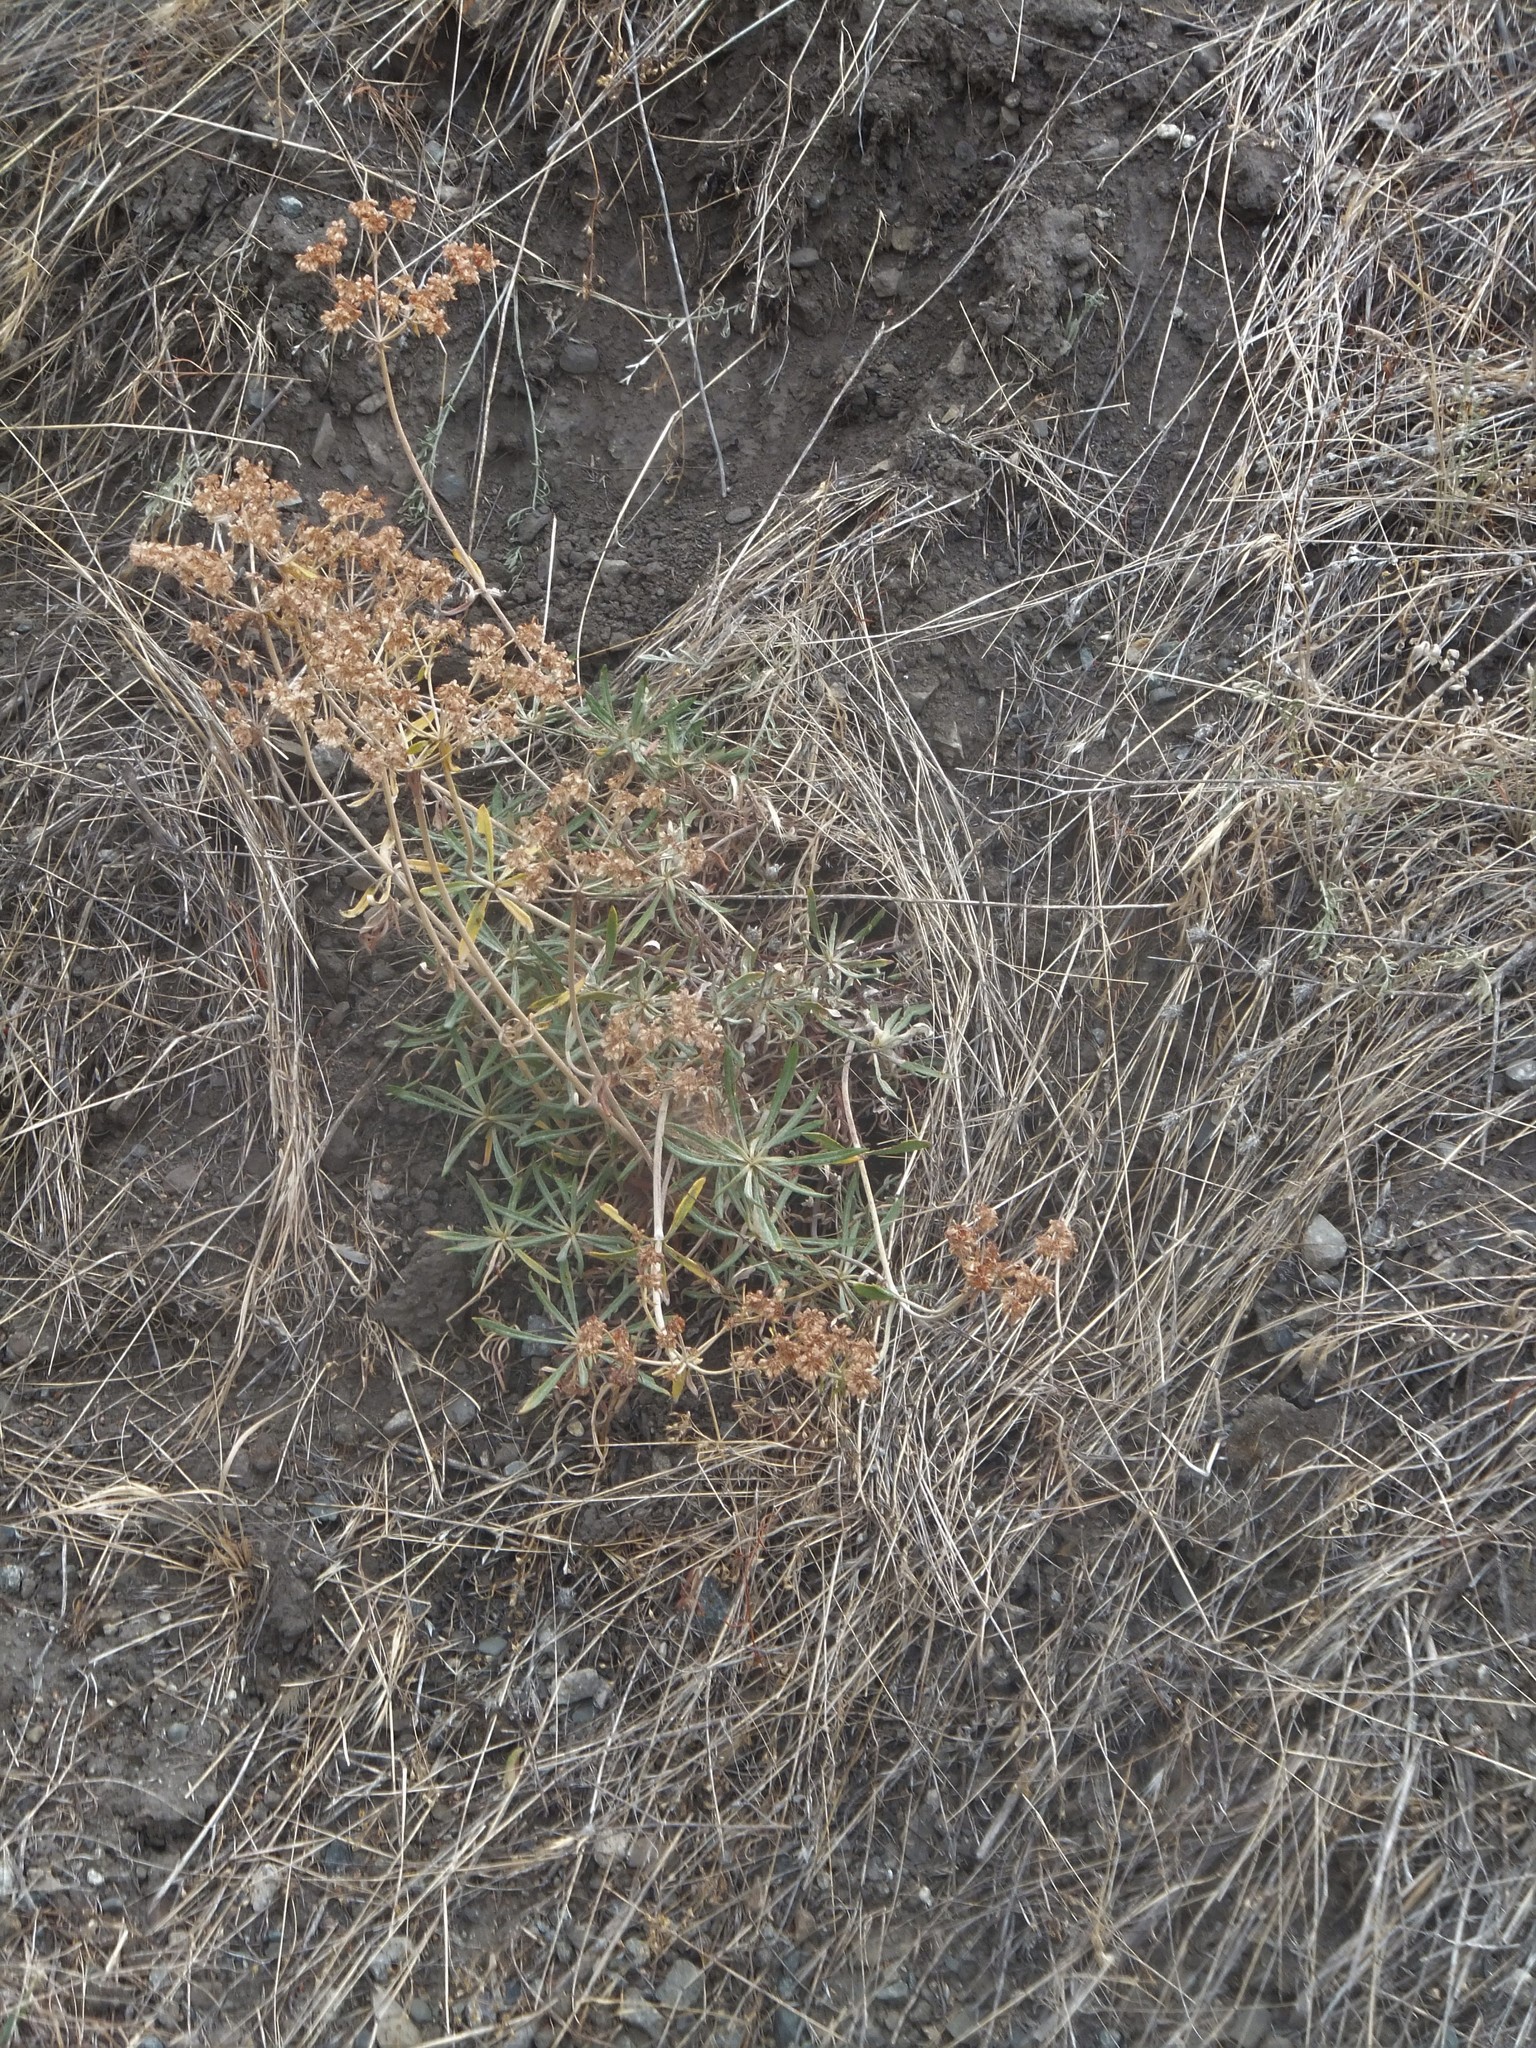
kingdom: Plantae
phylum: Tracheophyta
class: Magnoliopsida
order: Caryophyllales
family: Polygonaceae
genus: Eriogonum
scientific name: Eriogonum heracleoides
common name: Wyeth's buckwheat
